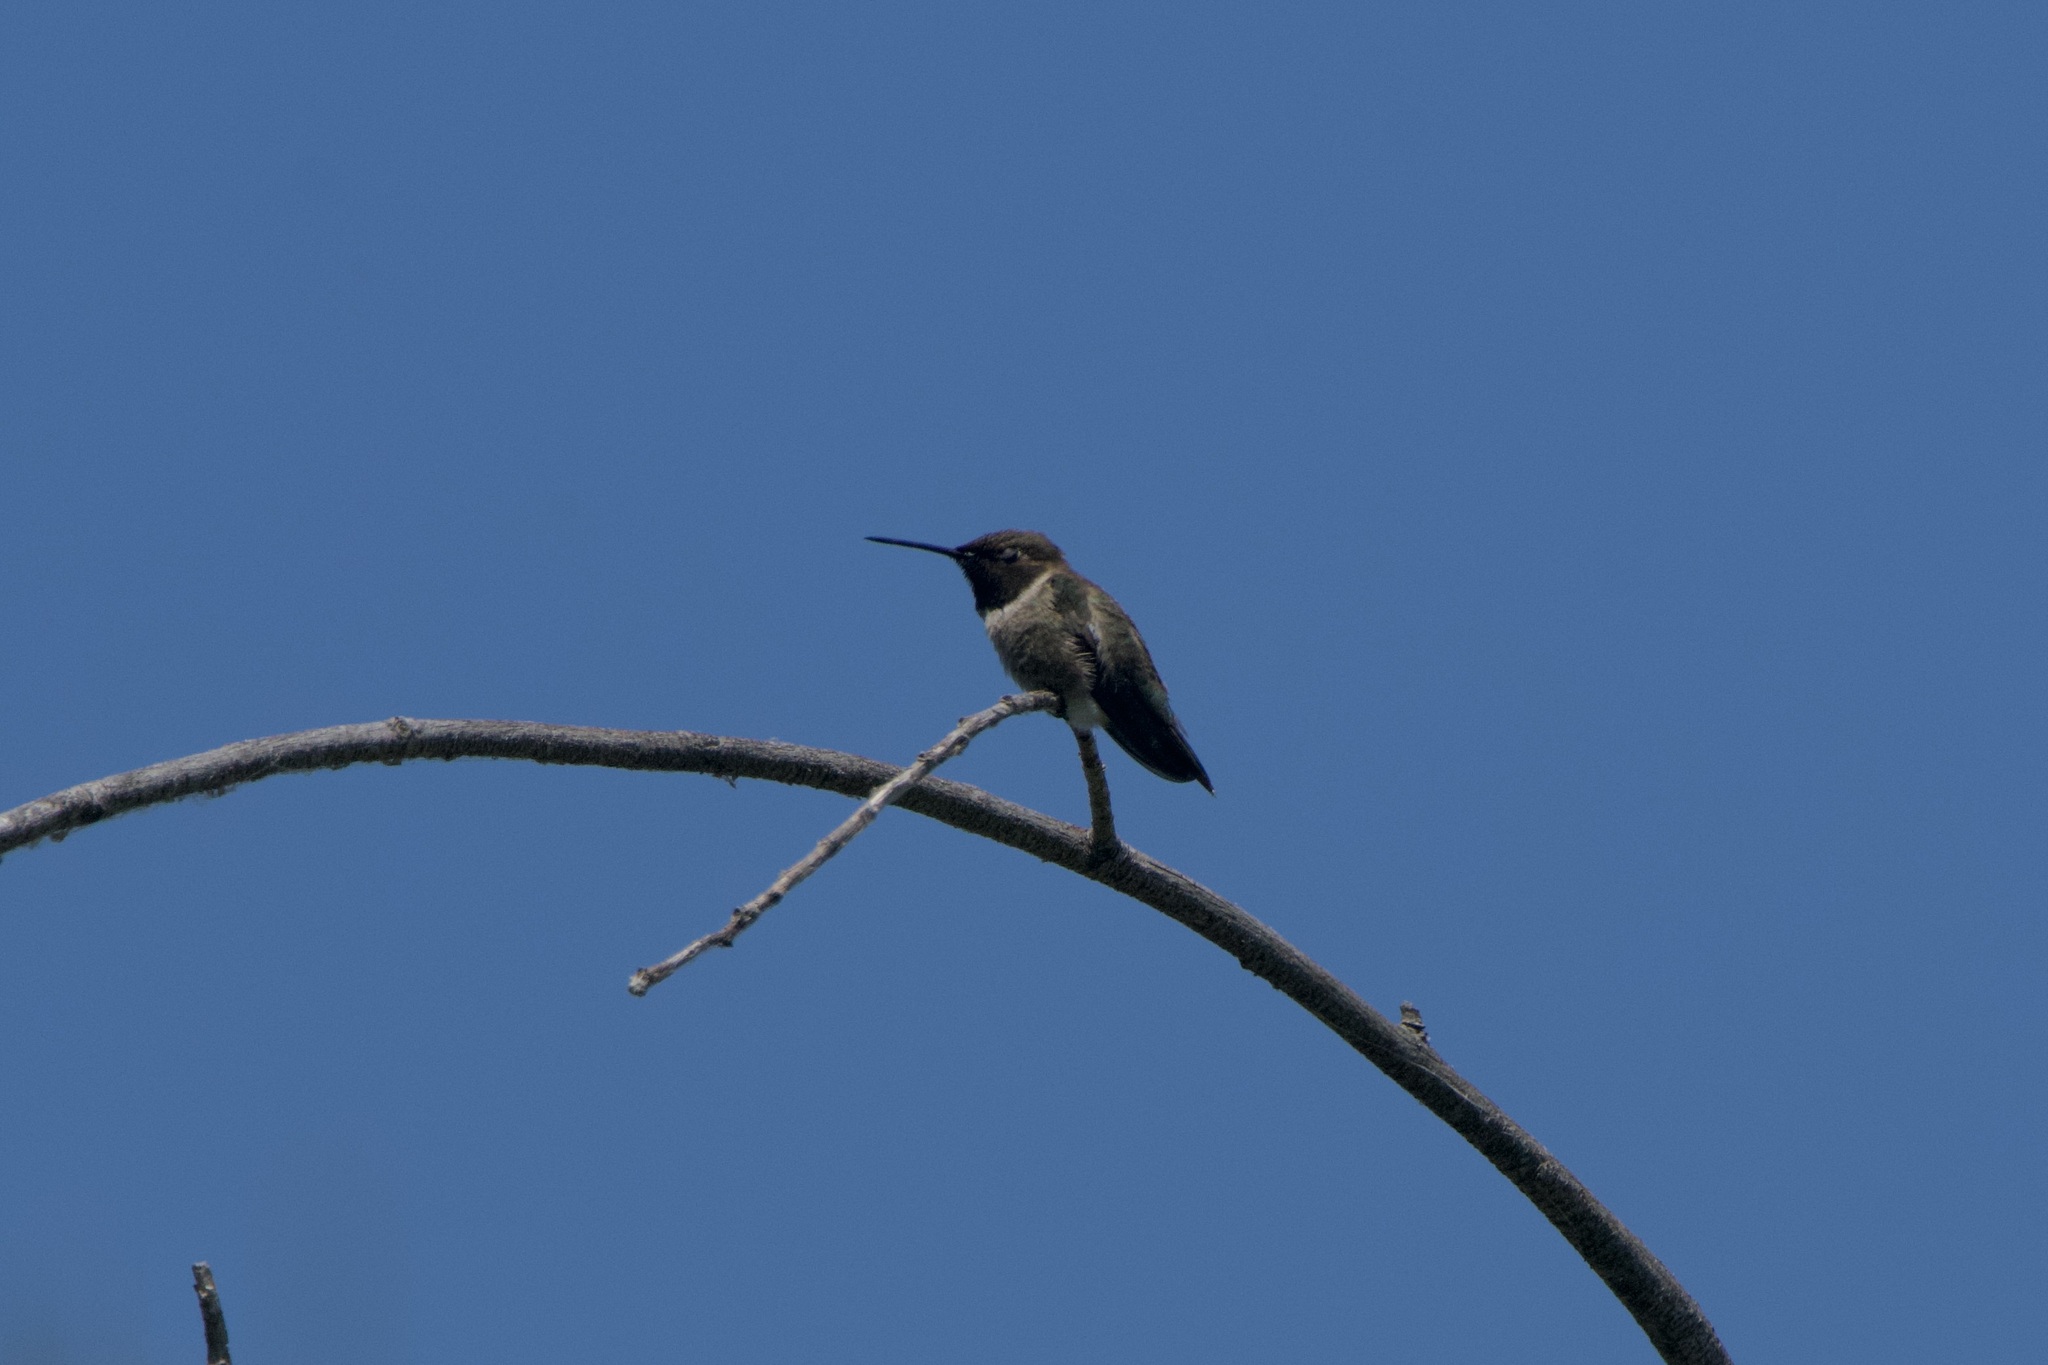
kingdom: Animalia
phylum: Chordata
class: Aves
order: Apodiformes
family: Trochilidae
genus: Archilochus
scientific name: Archilochus alexandri
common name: Black-chinned hummingbird
